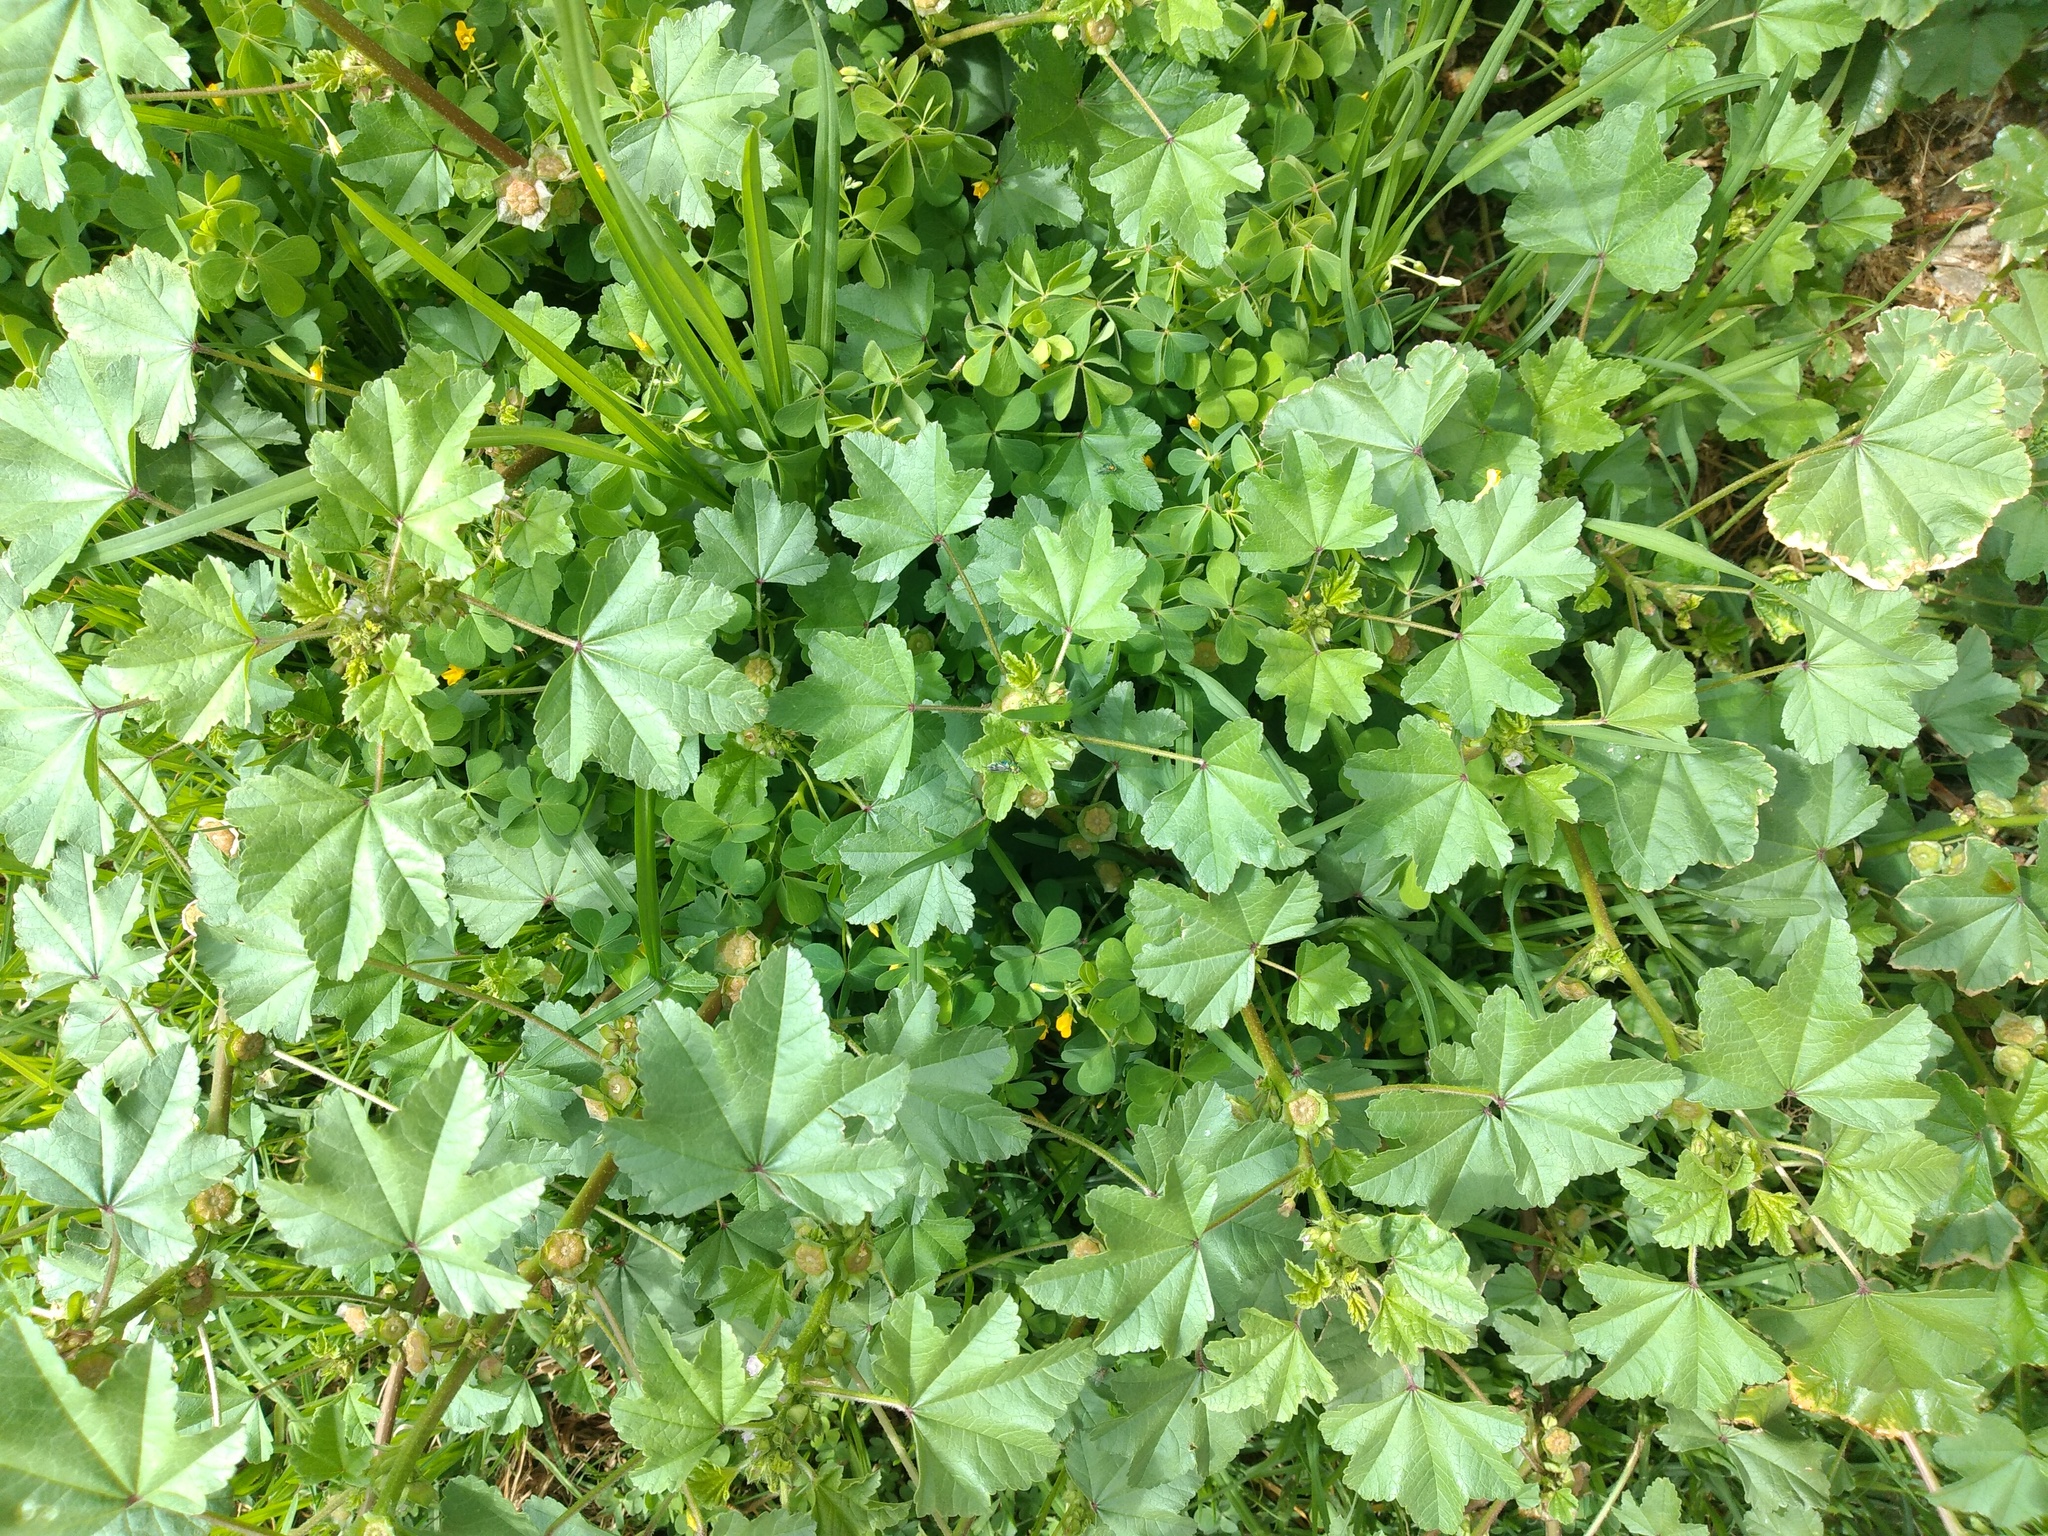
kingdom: Plantae
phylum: Tracheophyta
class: Magnoliopsida
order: Malvales
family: Malvaceae
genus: Malva
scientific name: Malva parviflora
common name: Least mallow
